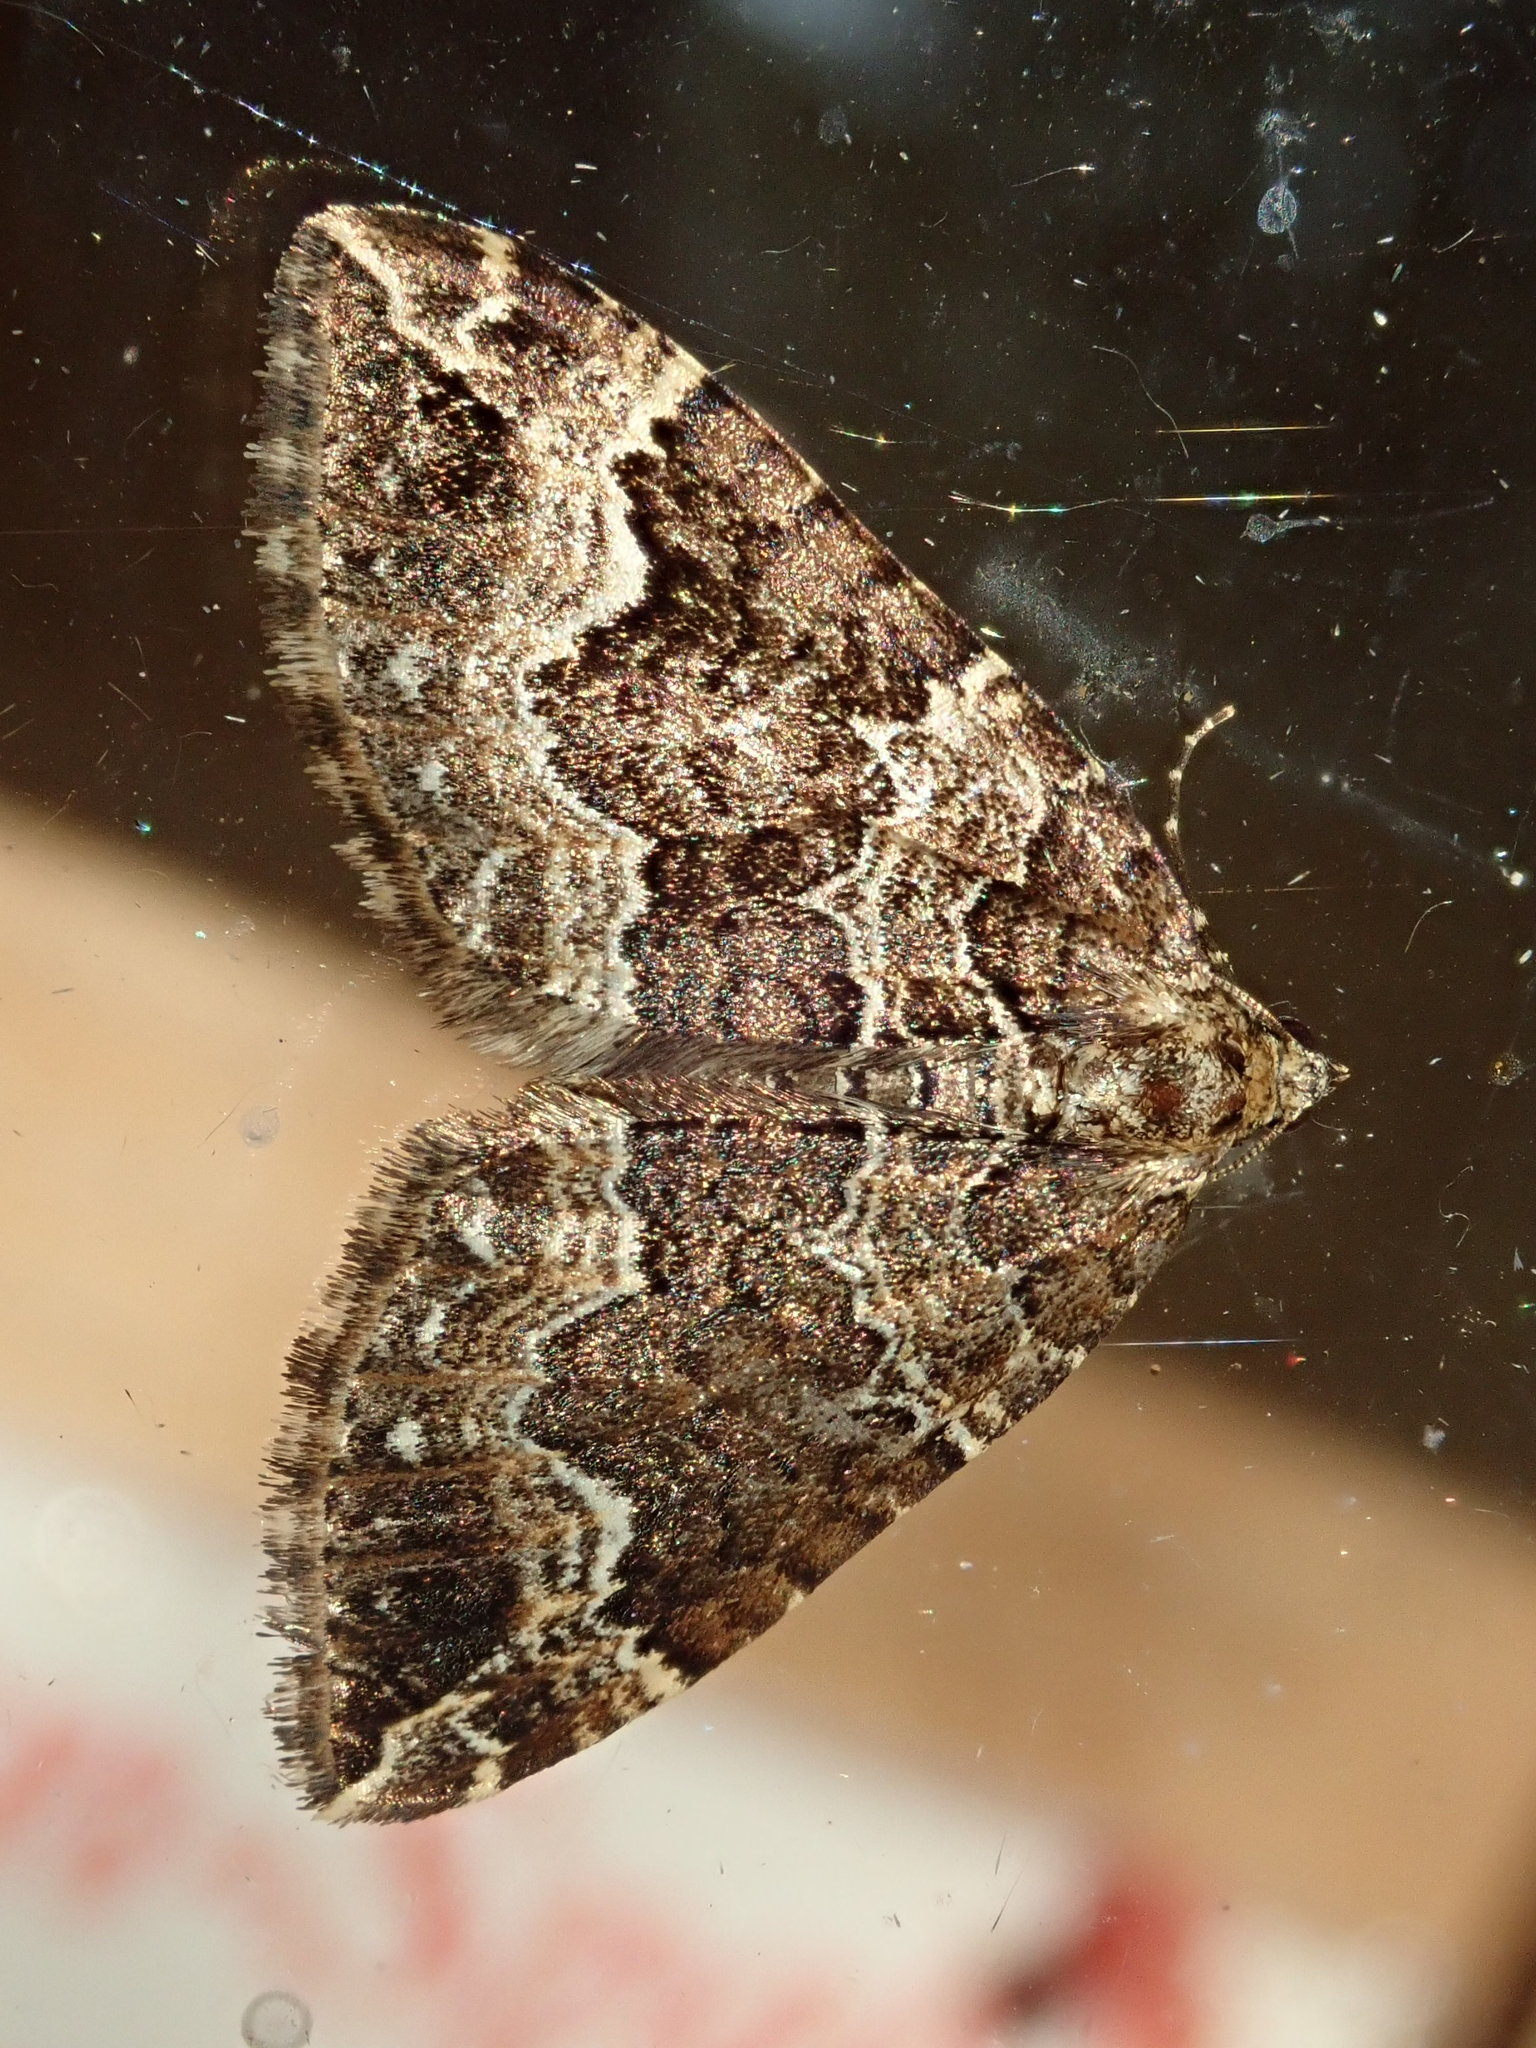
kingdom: Animalia
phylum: Arthropoda
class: Insecta
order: Lepidoptera
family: Geometridae
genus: Lampropteryx
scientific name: Lampropteryx suffumata
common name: Water carpet
